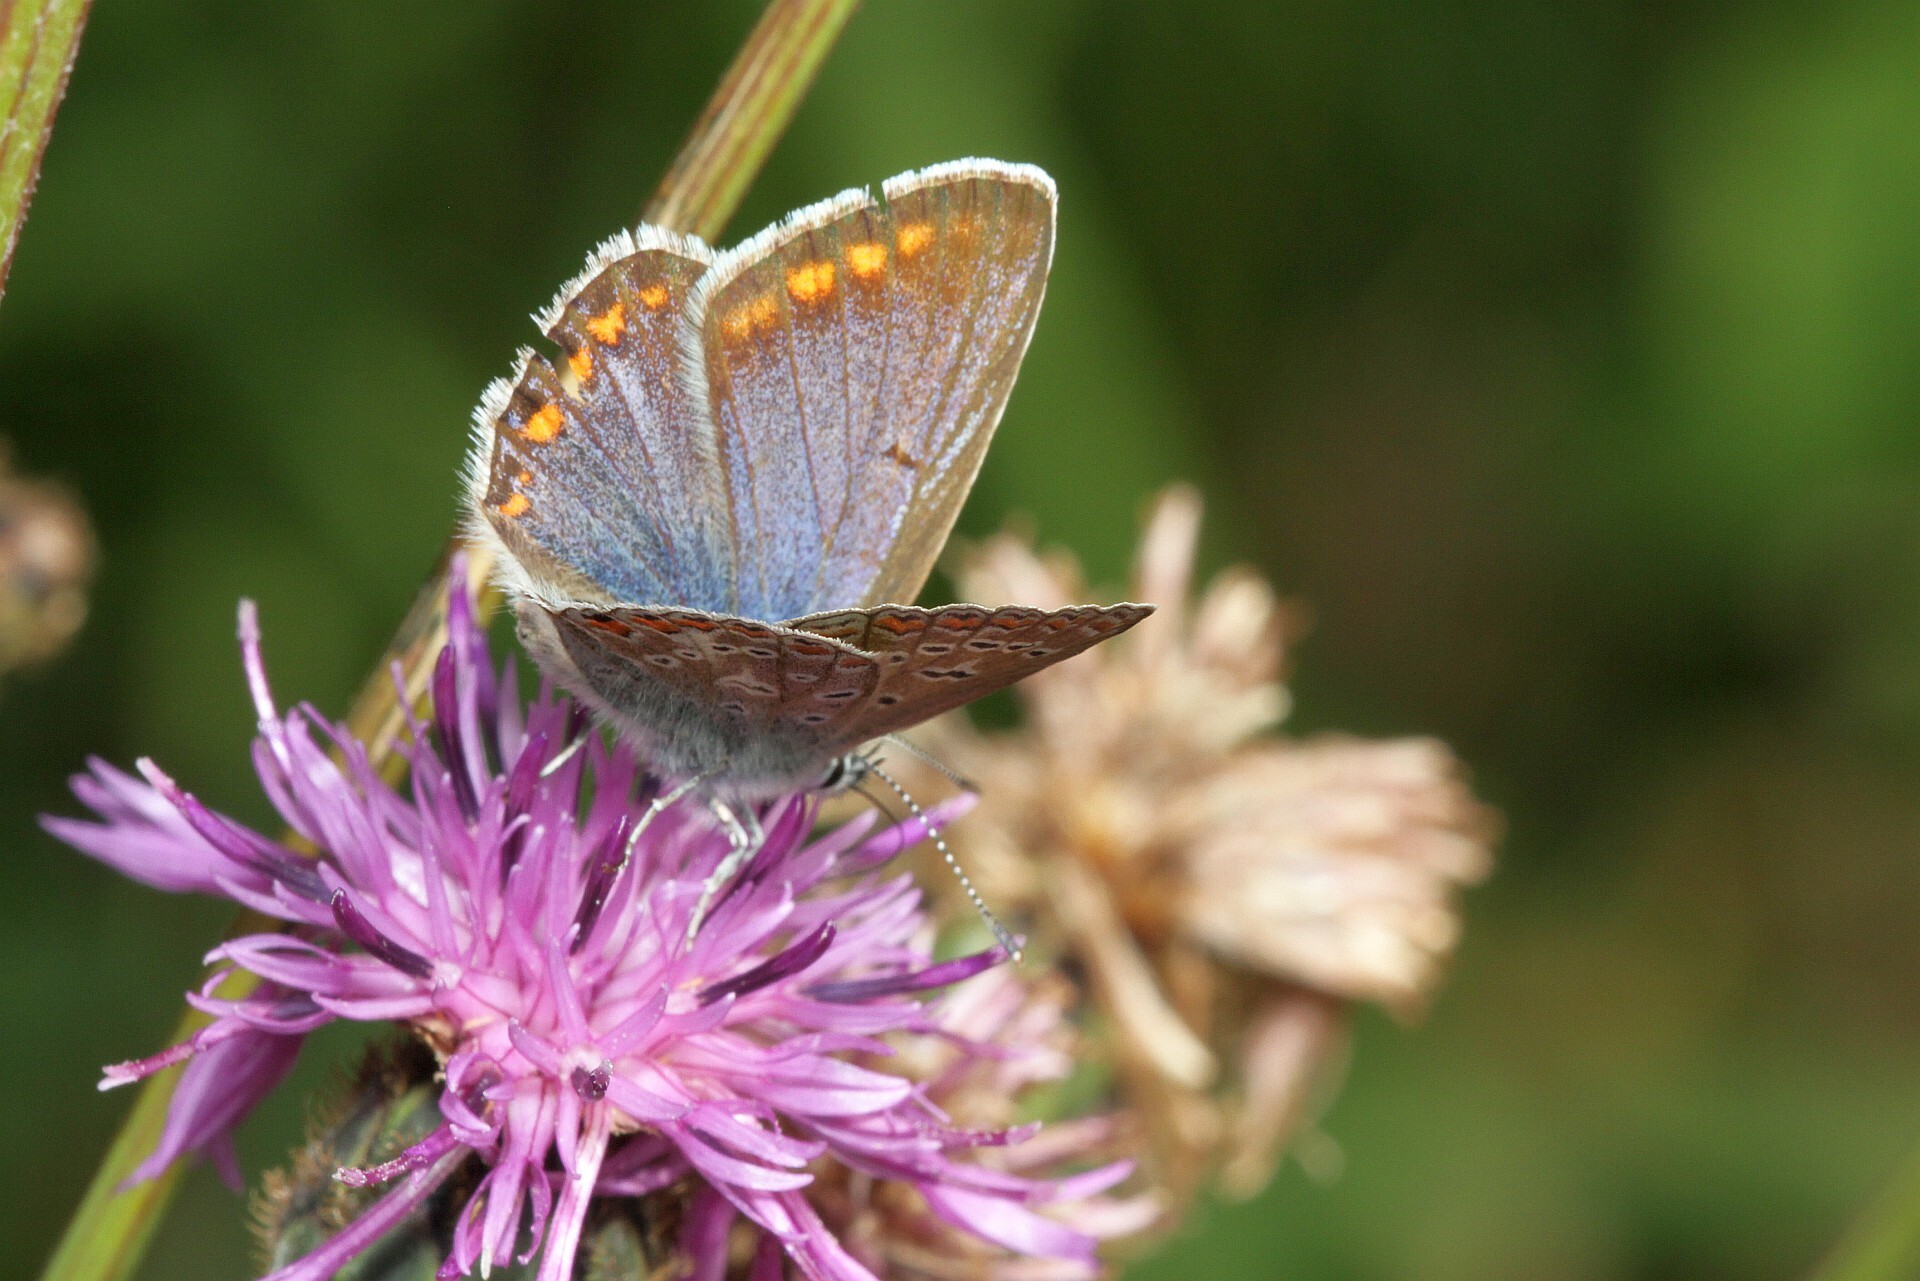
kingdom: Animalia
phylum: Arthropoda
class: Insecta
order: Lepidoptera
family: Lycaenidae
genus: Polyommatus
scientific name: Polyommatus icarus
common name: Common blue
